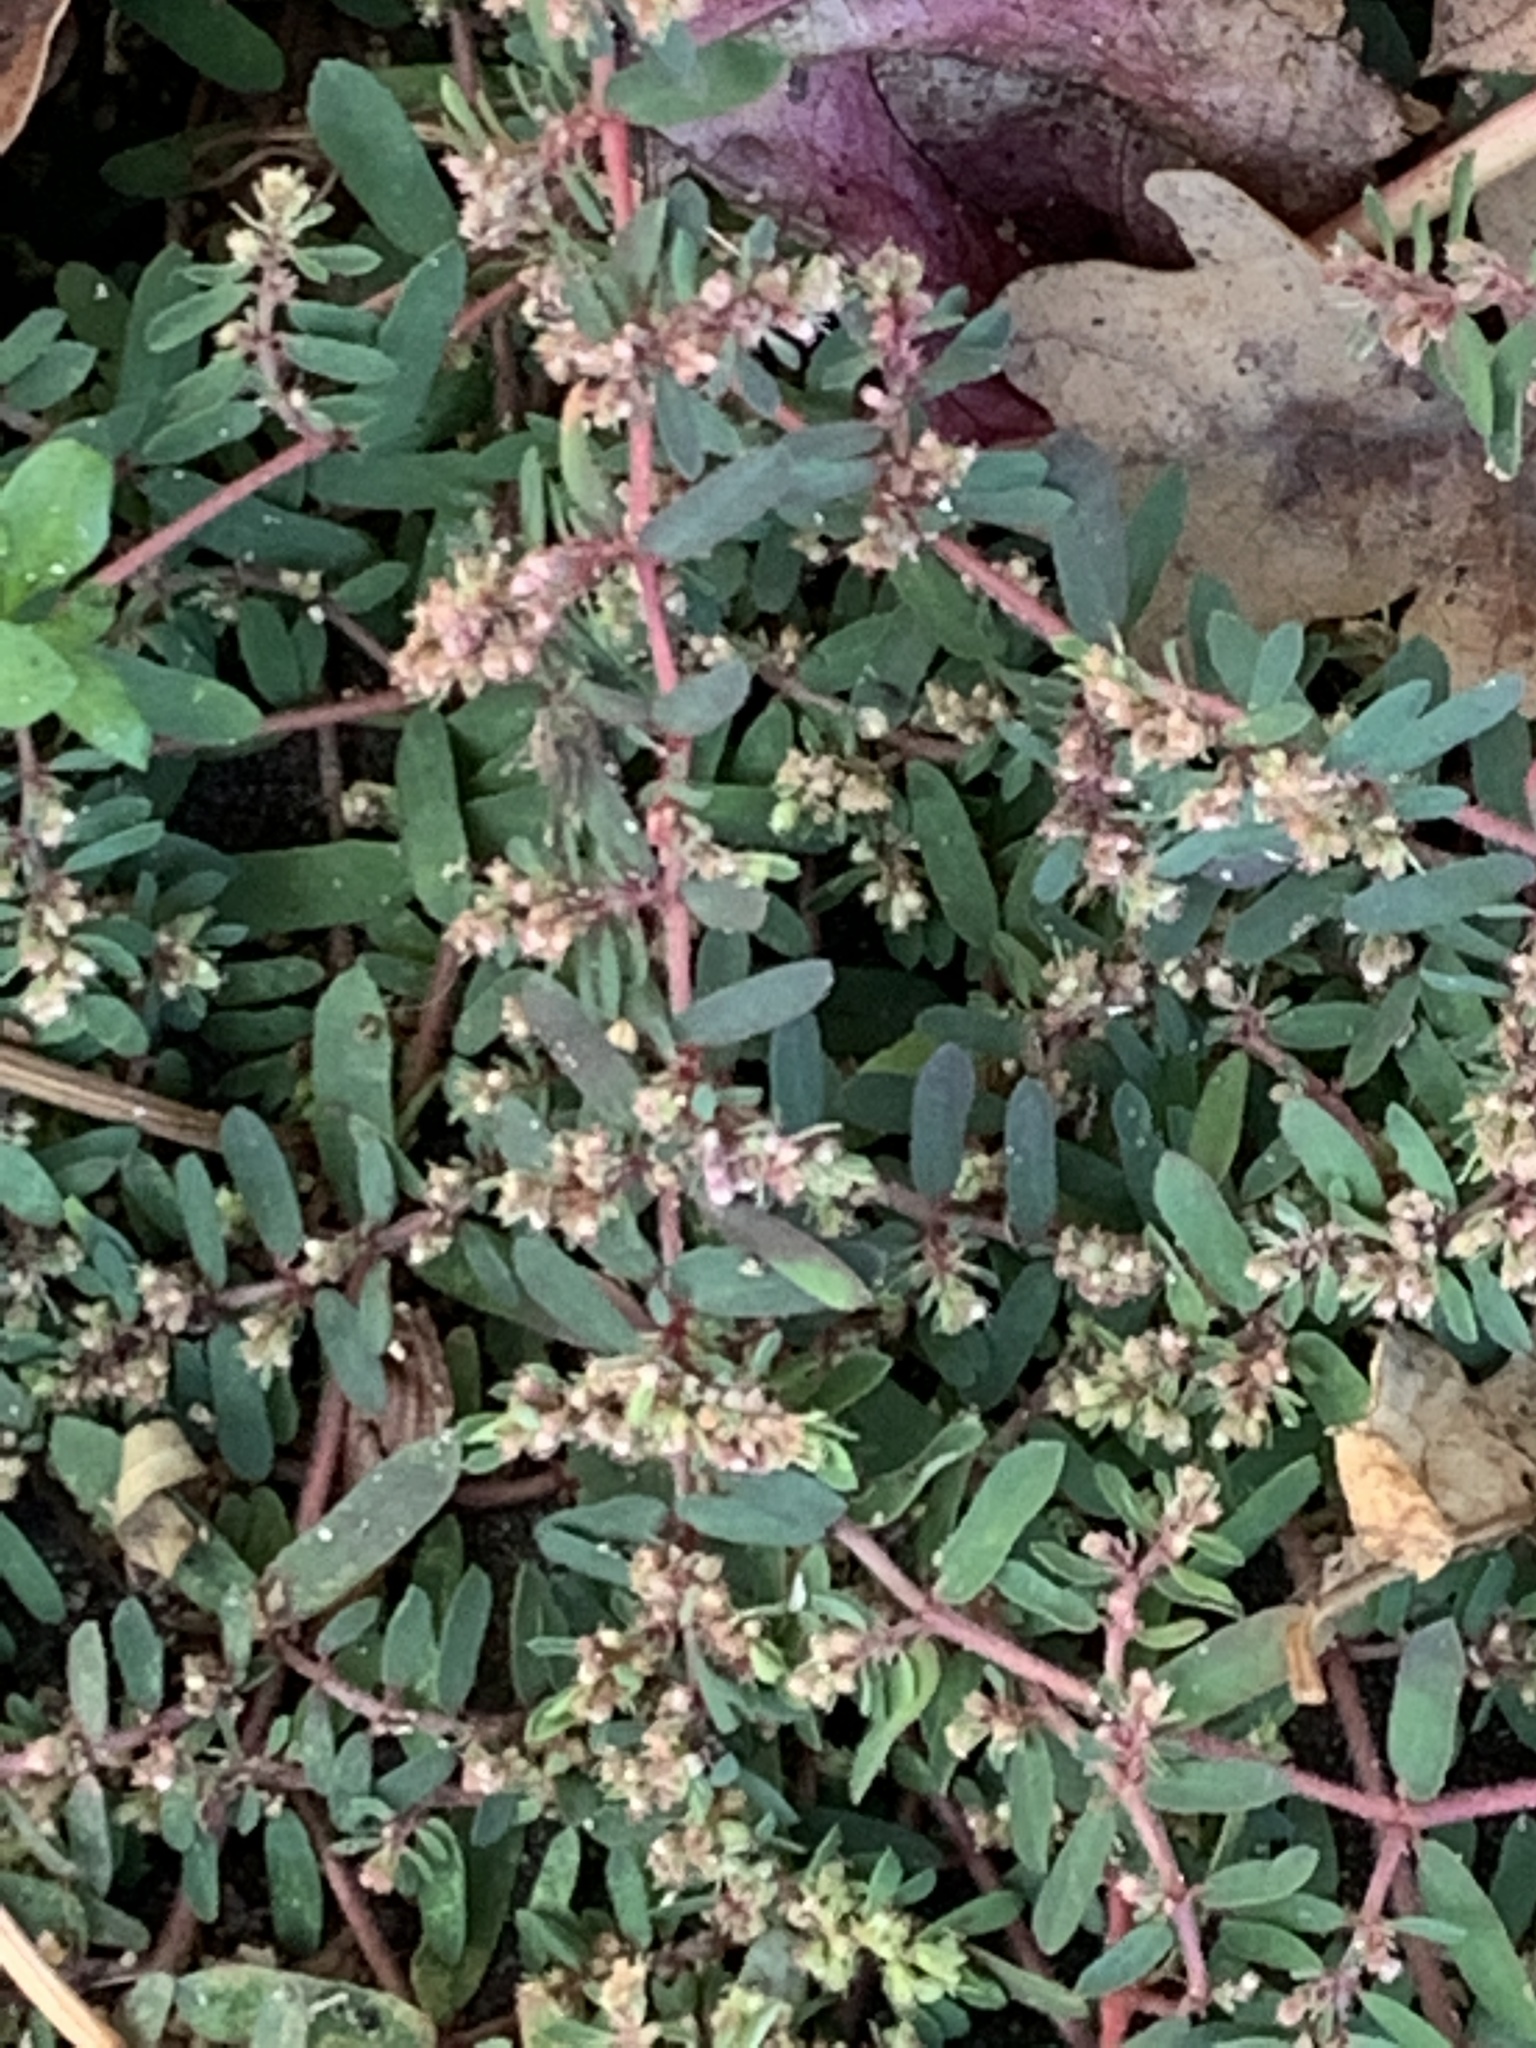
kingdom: Plantae
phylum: Tracheophyta
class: Magnoliopsida
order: Malpighiales
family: Euphorbiaceae
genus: Euphorbia
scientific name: Euphorbia maculata
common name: Spotted spurge
